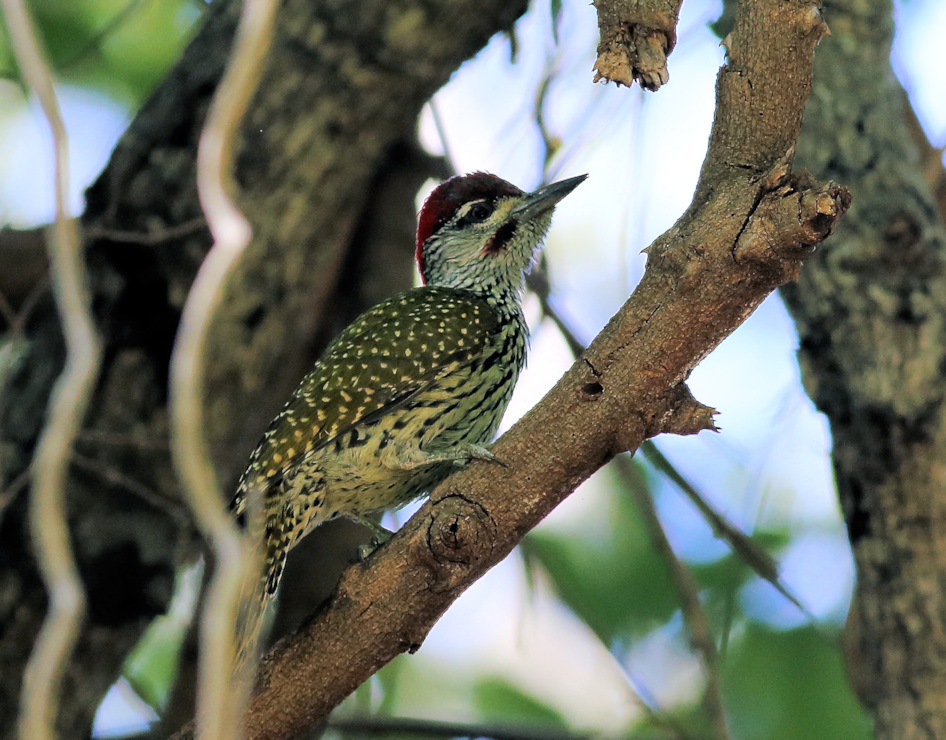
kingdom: Animalia
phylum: Chordata
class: Aves
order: Piciformes
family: Picidae
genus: Campethera
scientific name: Campethera abingoni
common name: Golden-tailed woodpecker
